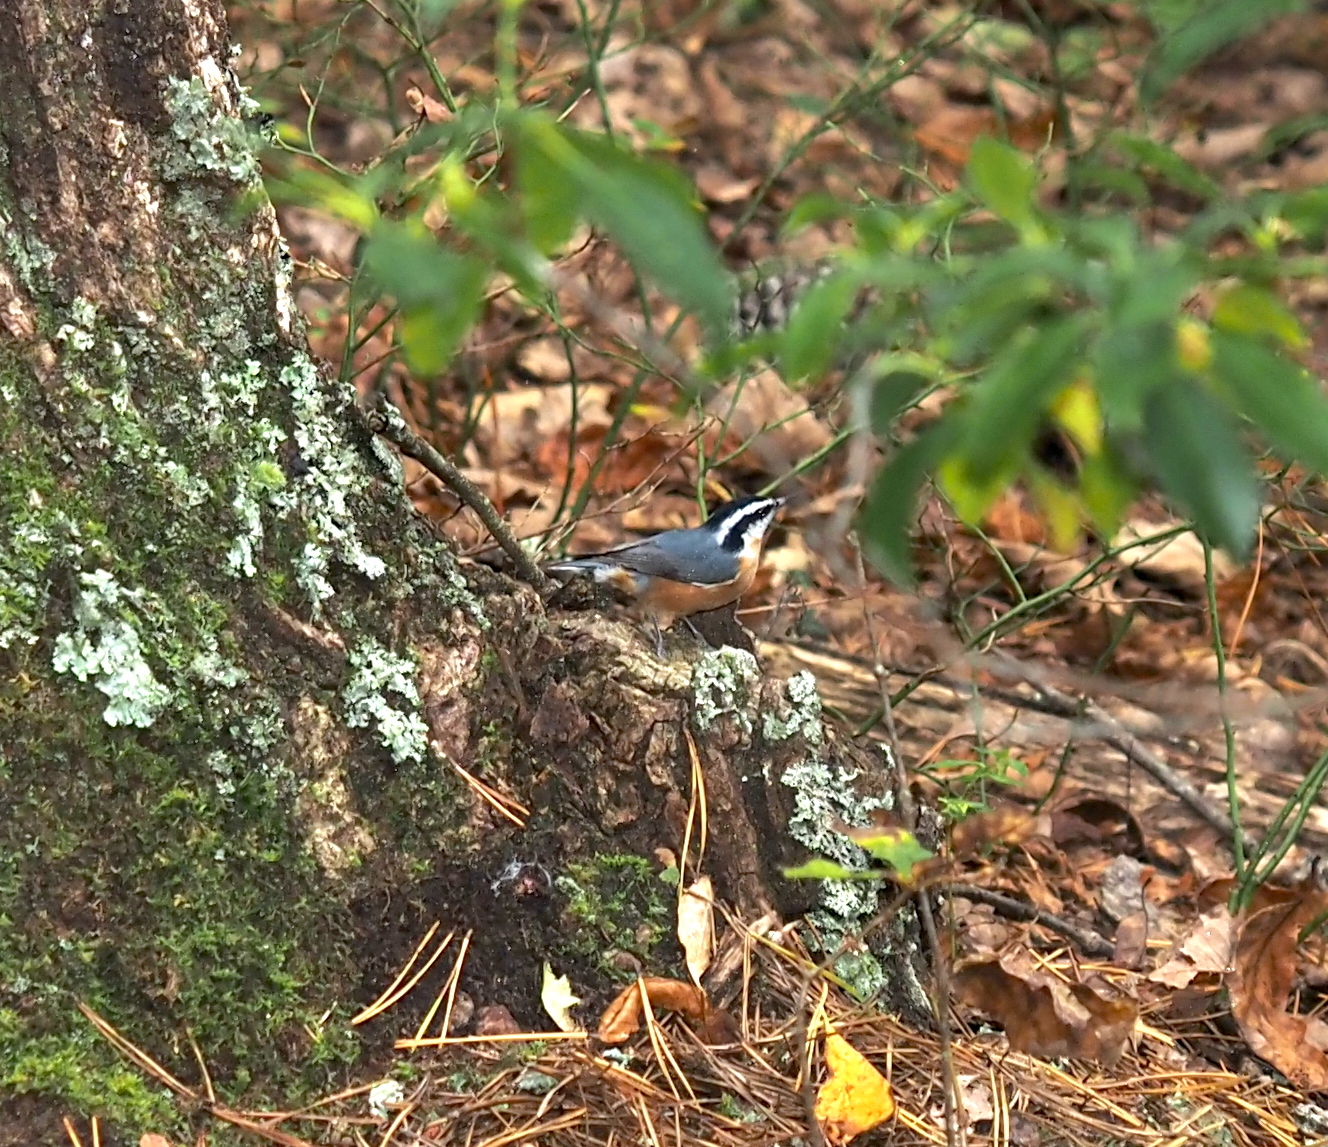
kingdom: Animalia
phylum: Chordata
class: Aves
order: Passeriformes
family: Sittidae
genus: Sitta
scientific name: Sitta canadensis
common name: Red-breasted nuthatch
